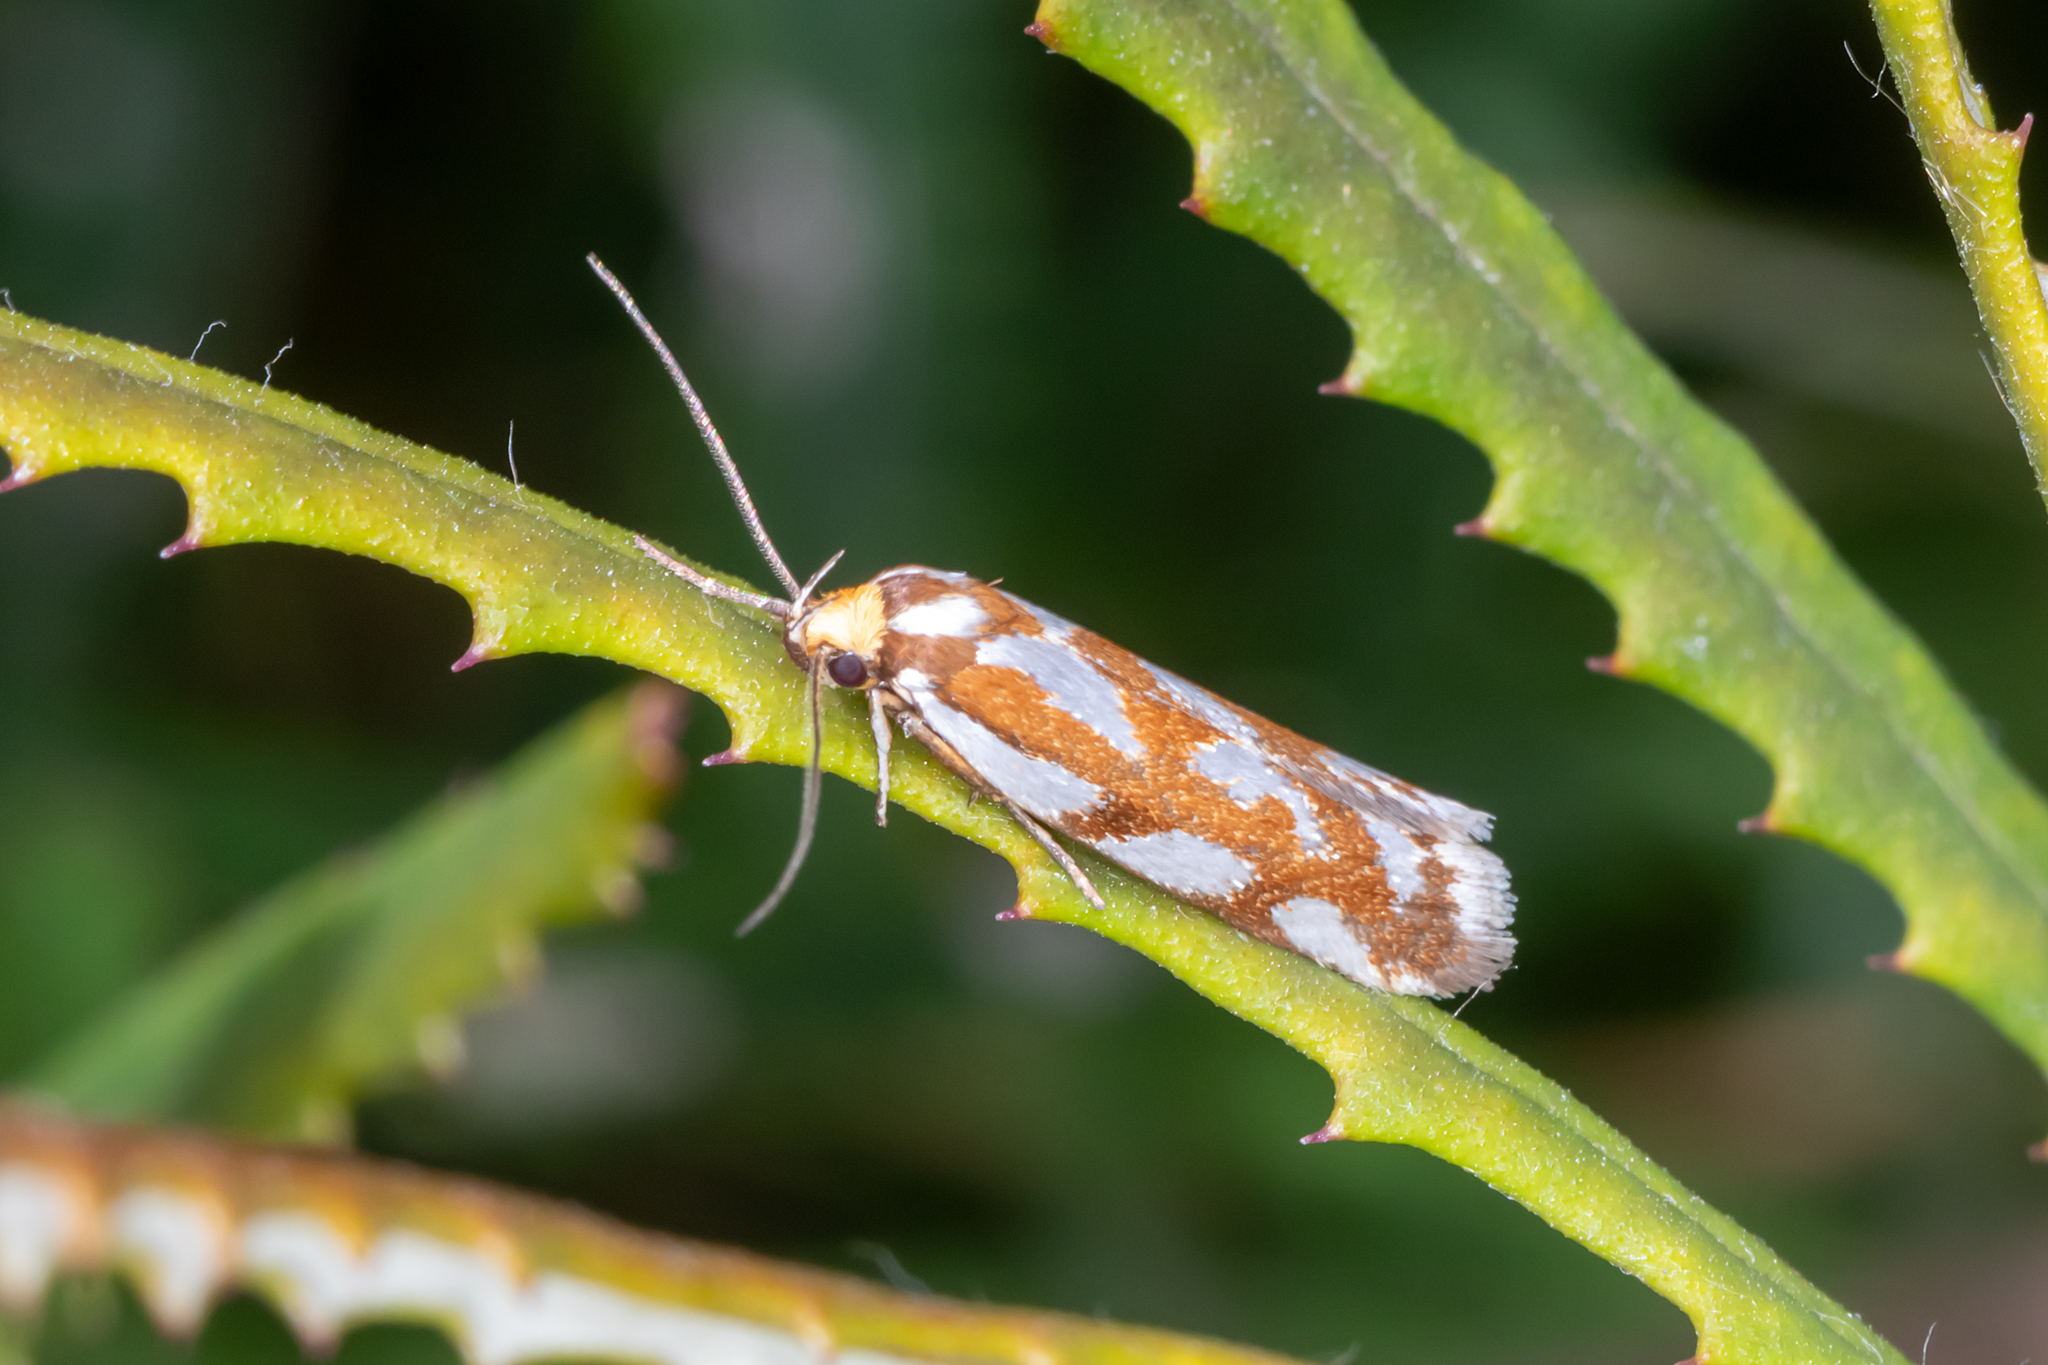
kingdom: Animalia
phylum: Arthropoda
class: Insecta
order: Lepidoptera
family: Oecophoridae
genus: Myrascia
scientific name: Myrascia bracteatella
